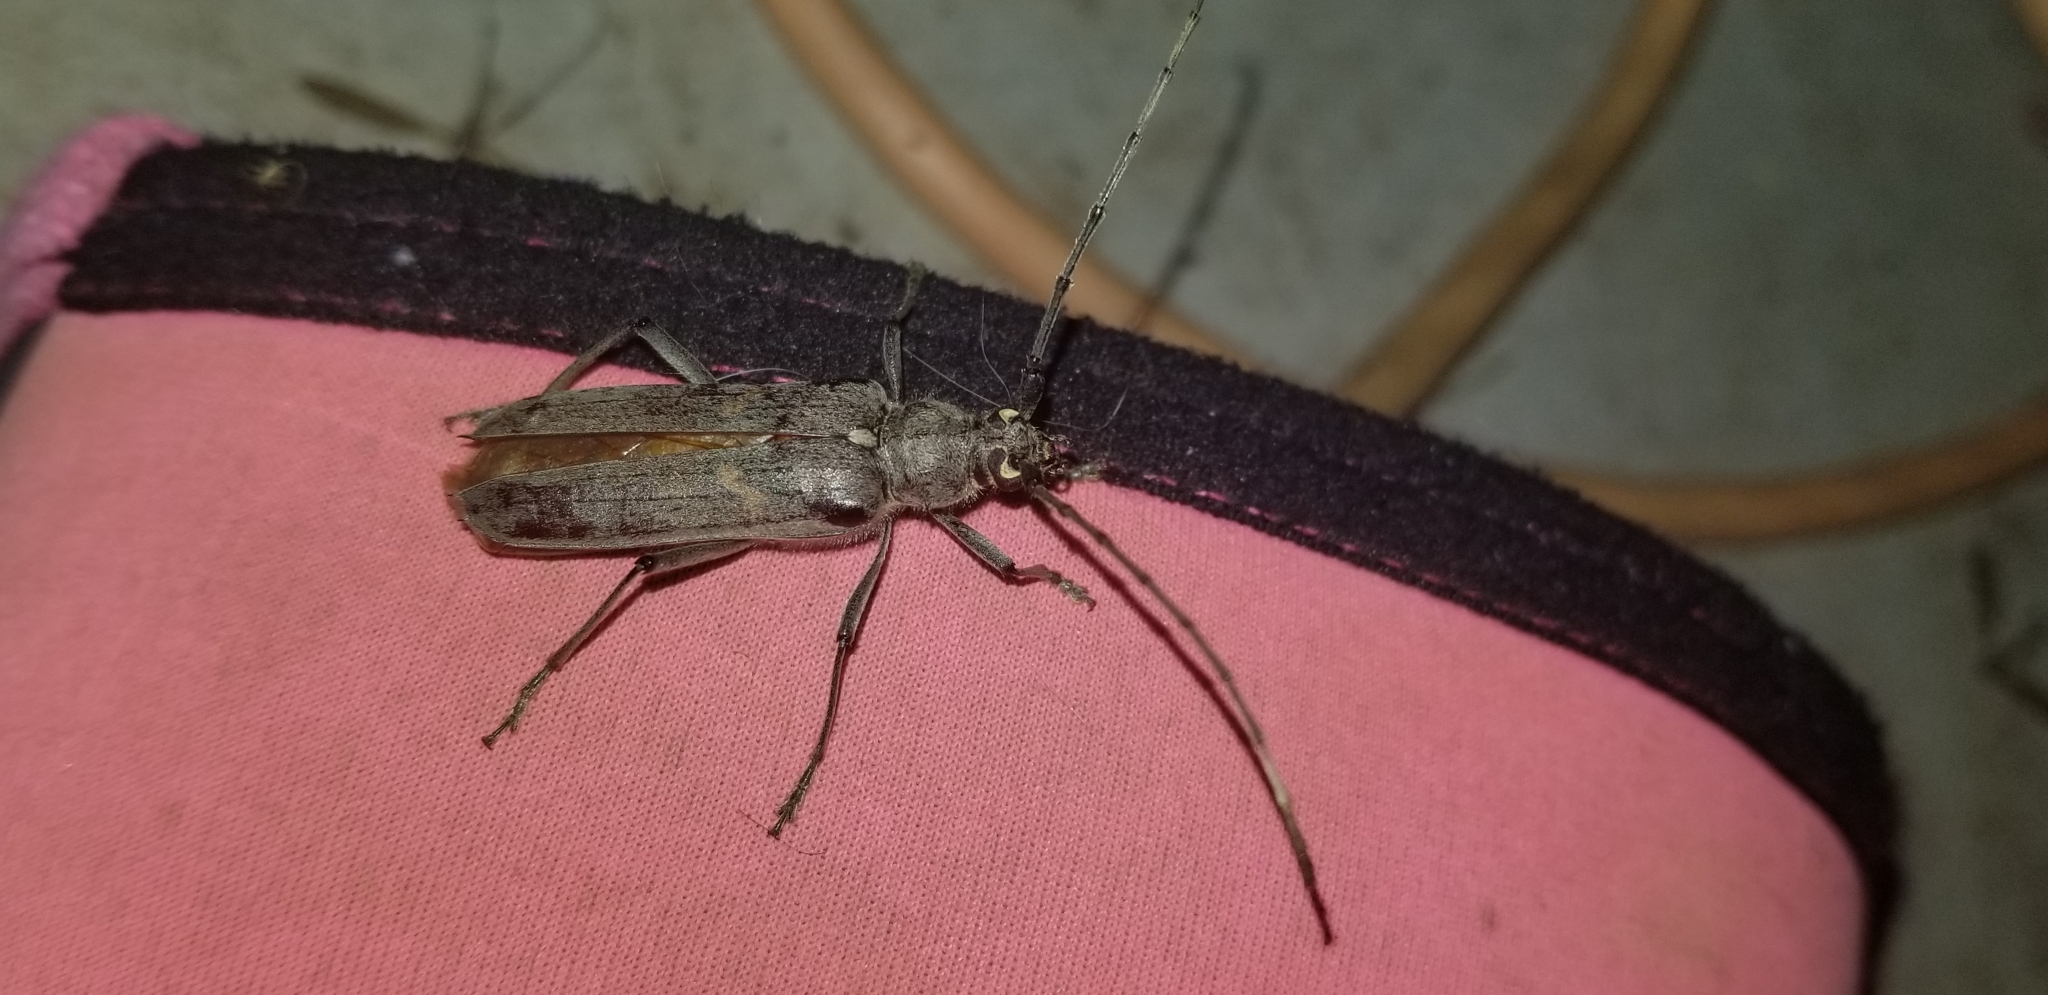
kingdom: Animalia
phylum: Arthropoda
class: Insecta
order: Coleoptera
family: Cerambycidae
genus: Knulliana
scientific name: Knulliana cincta
